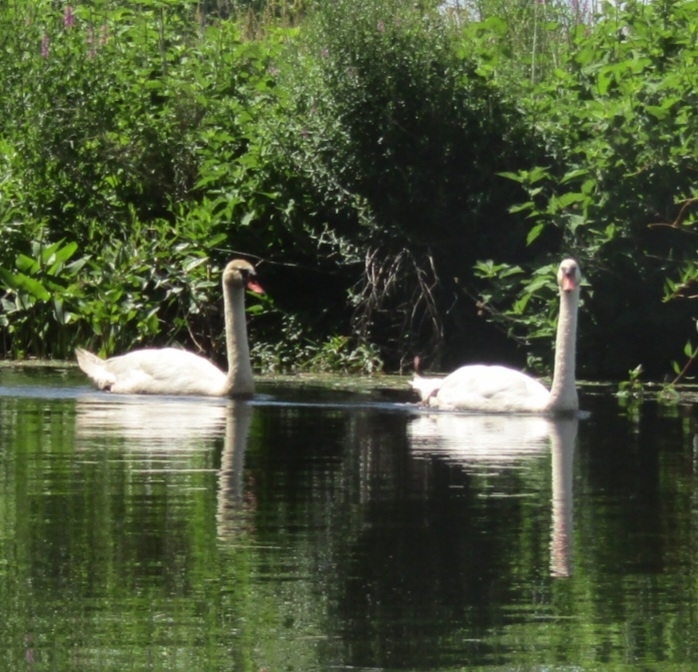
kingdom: Animalia
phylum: Chordata
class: Aves
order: Anseriformes
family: Anatidae
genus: Cygnus
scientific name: Cygnus olor
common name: Mute swan
